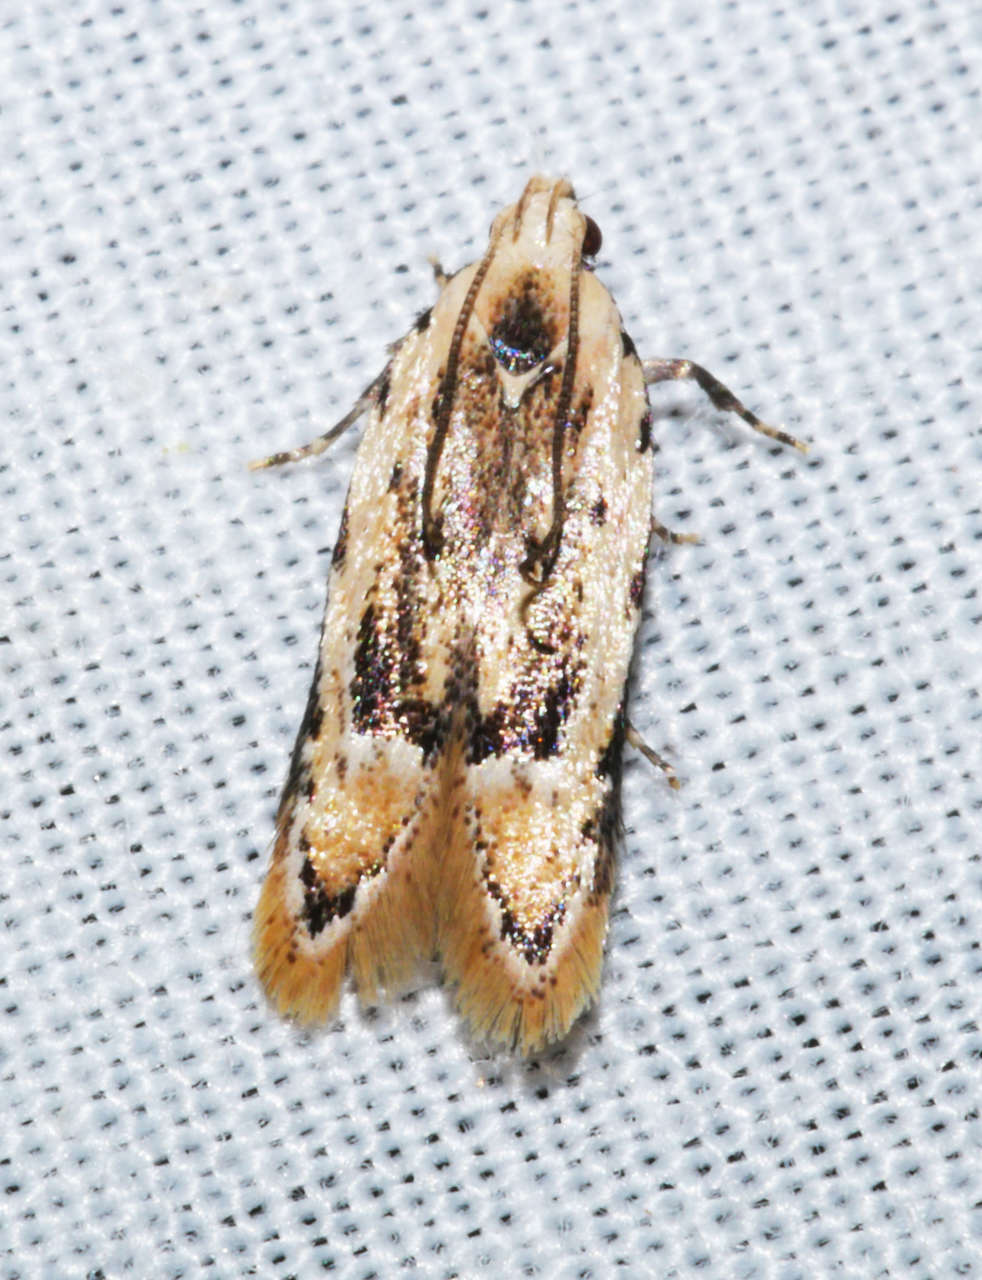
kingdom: Animalia
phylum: Arthropoda
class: Insecta
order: Lepidoptera
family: Gelechiidae
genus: Ardozyga
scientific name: Ardozyga decaspila
